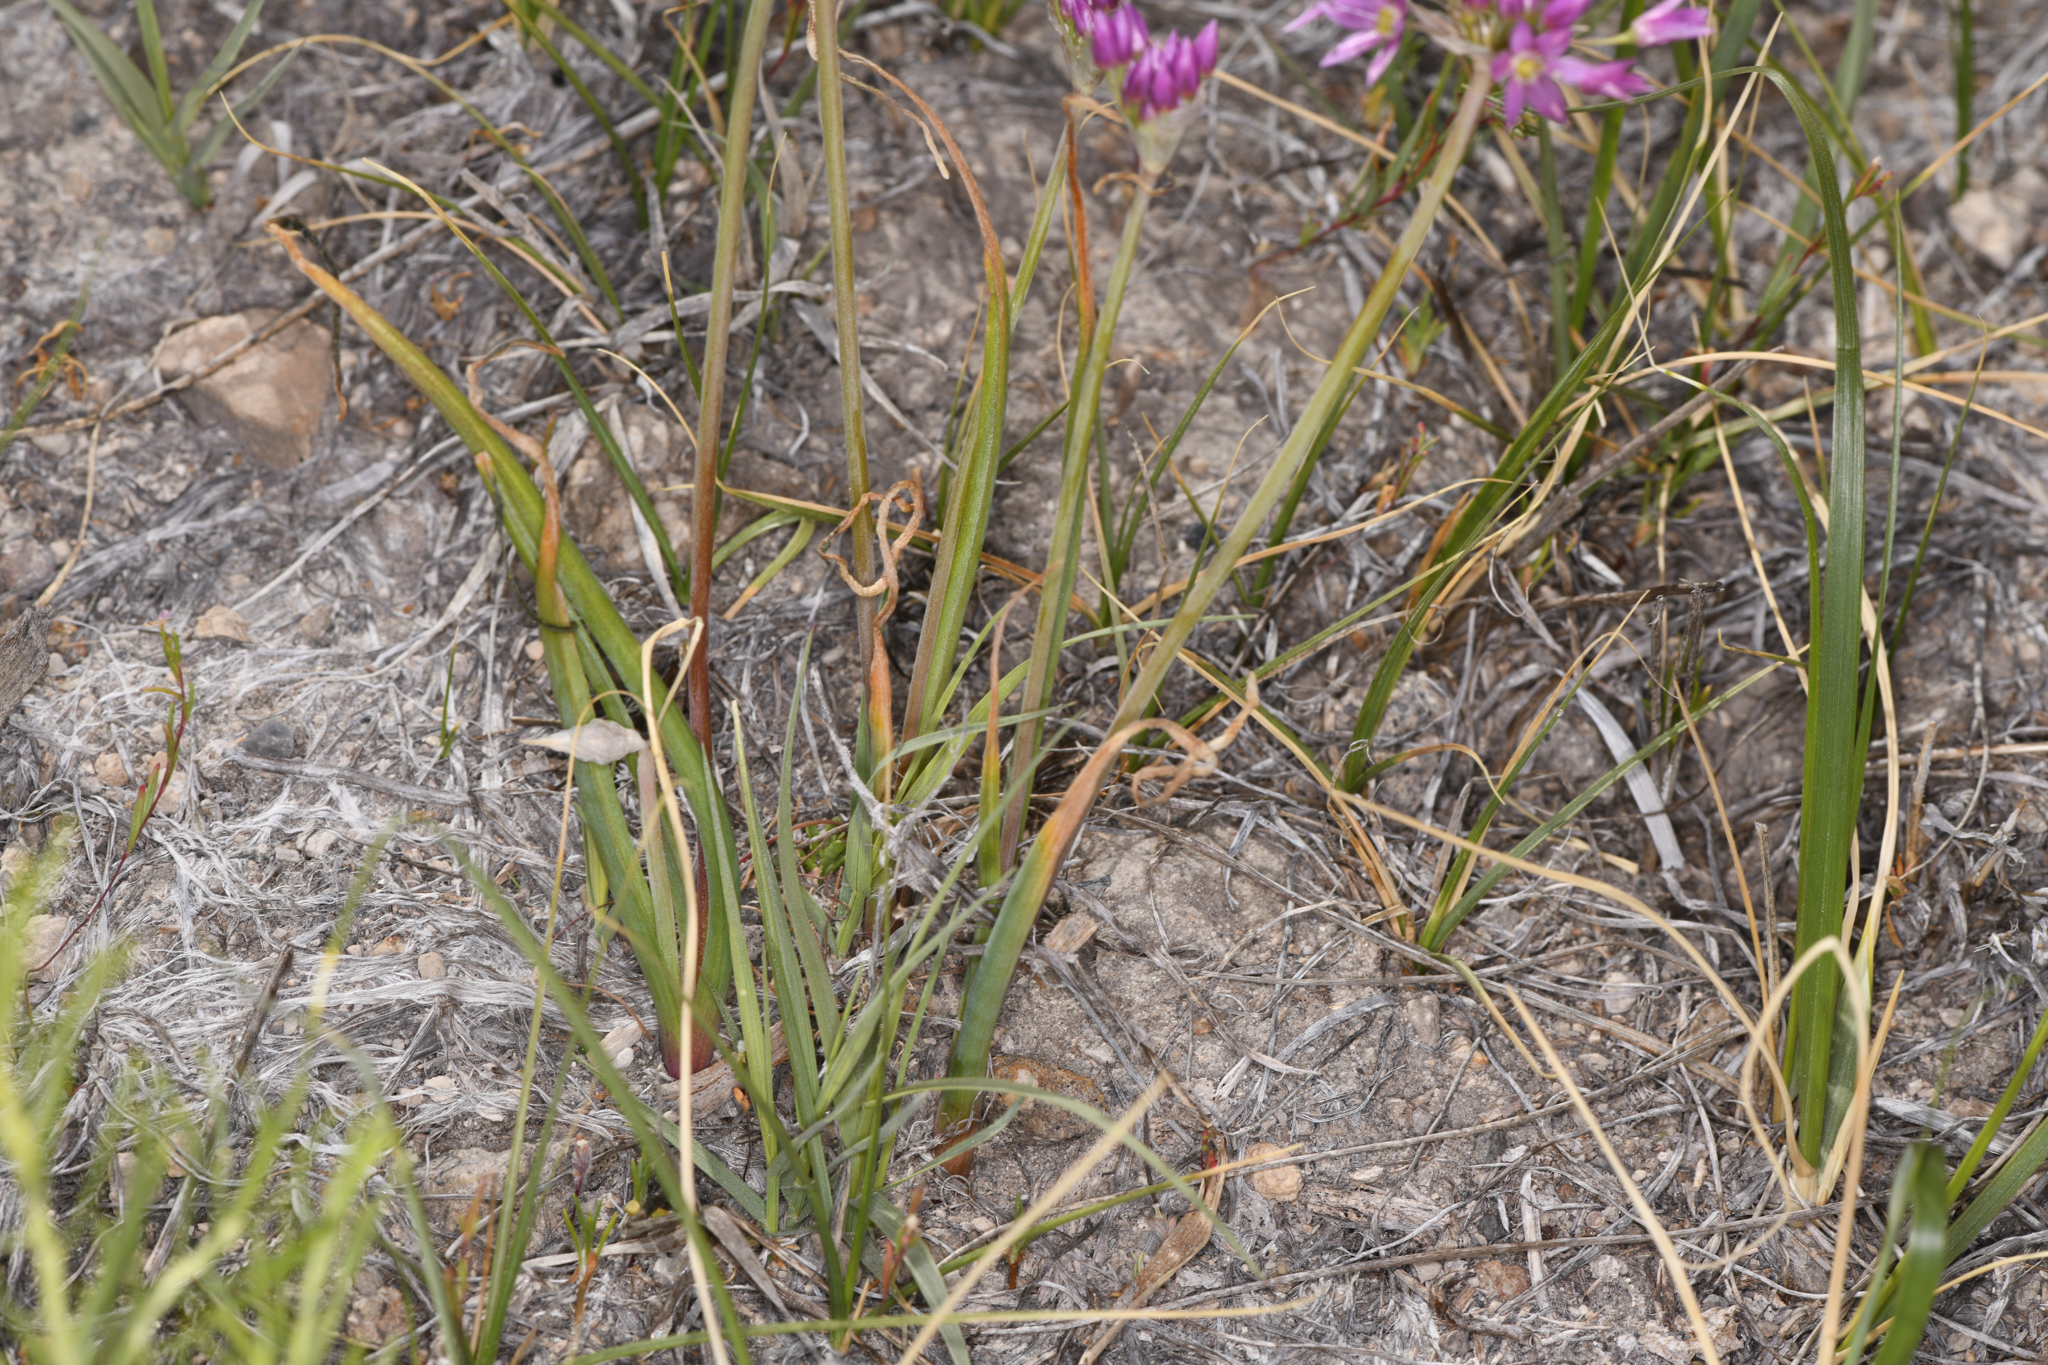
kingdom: Plantae
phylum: Tracheophyta
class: Liliopsida
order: Asparagales
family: Amaryllidaceae
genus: Allium
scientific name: Allium bisceptrum
